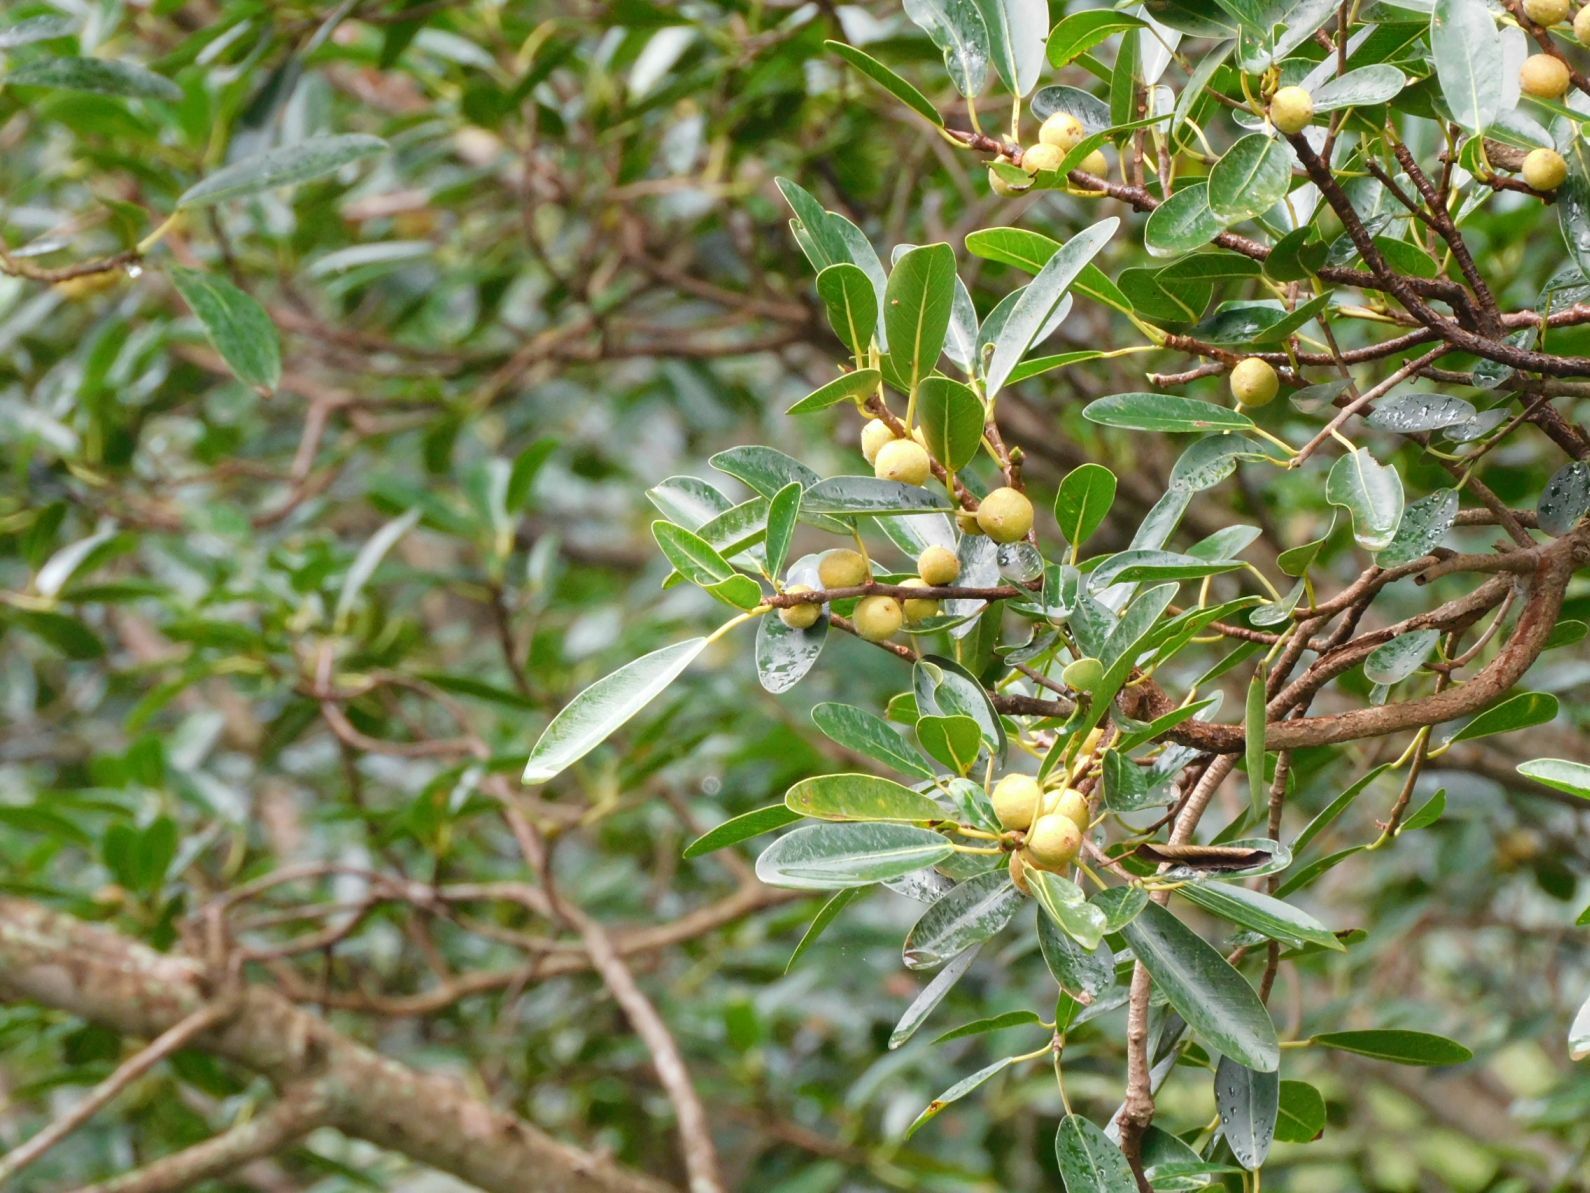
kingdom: Plantae
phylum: Tracheophyta
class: Magnoliopsida
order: Rosales
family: Moraceae
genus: Ficus
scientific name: Ficus thonningii
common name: Fig
